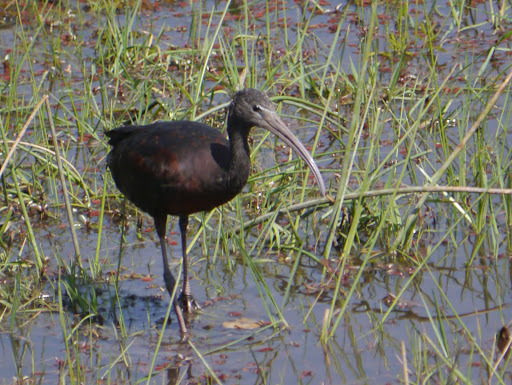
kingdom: Animalia
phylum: Chordata
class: Aves
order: Pelecaniformes
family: Threskiornithidae
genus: Plegadis
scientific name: Plegadis falcinellus
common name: Glossy ibis
